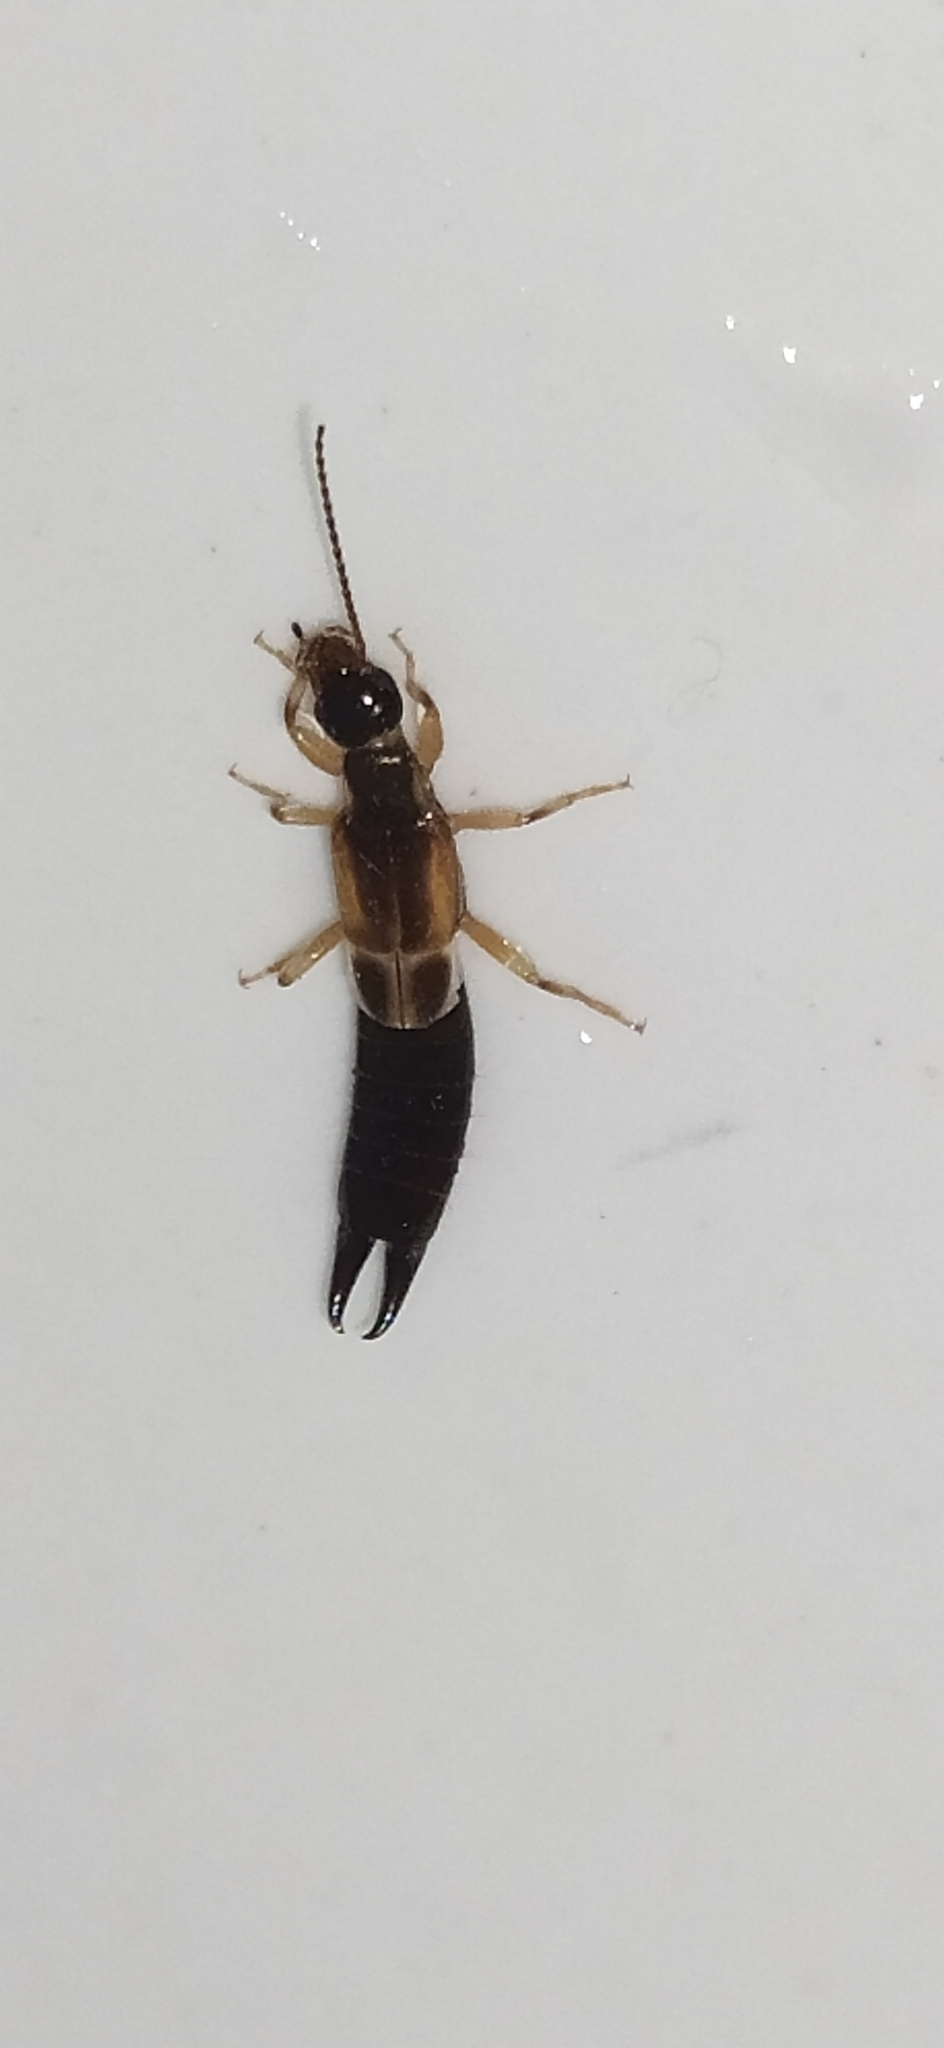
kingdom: Animalia
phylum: Arthropoda
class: Insecta
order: Dermaptera
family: Anisolabididae
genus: Euborellia
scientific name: Euborellia annulipes
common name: Ringlegged earwig
